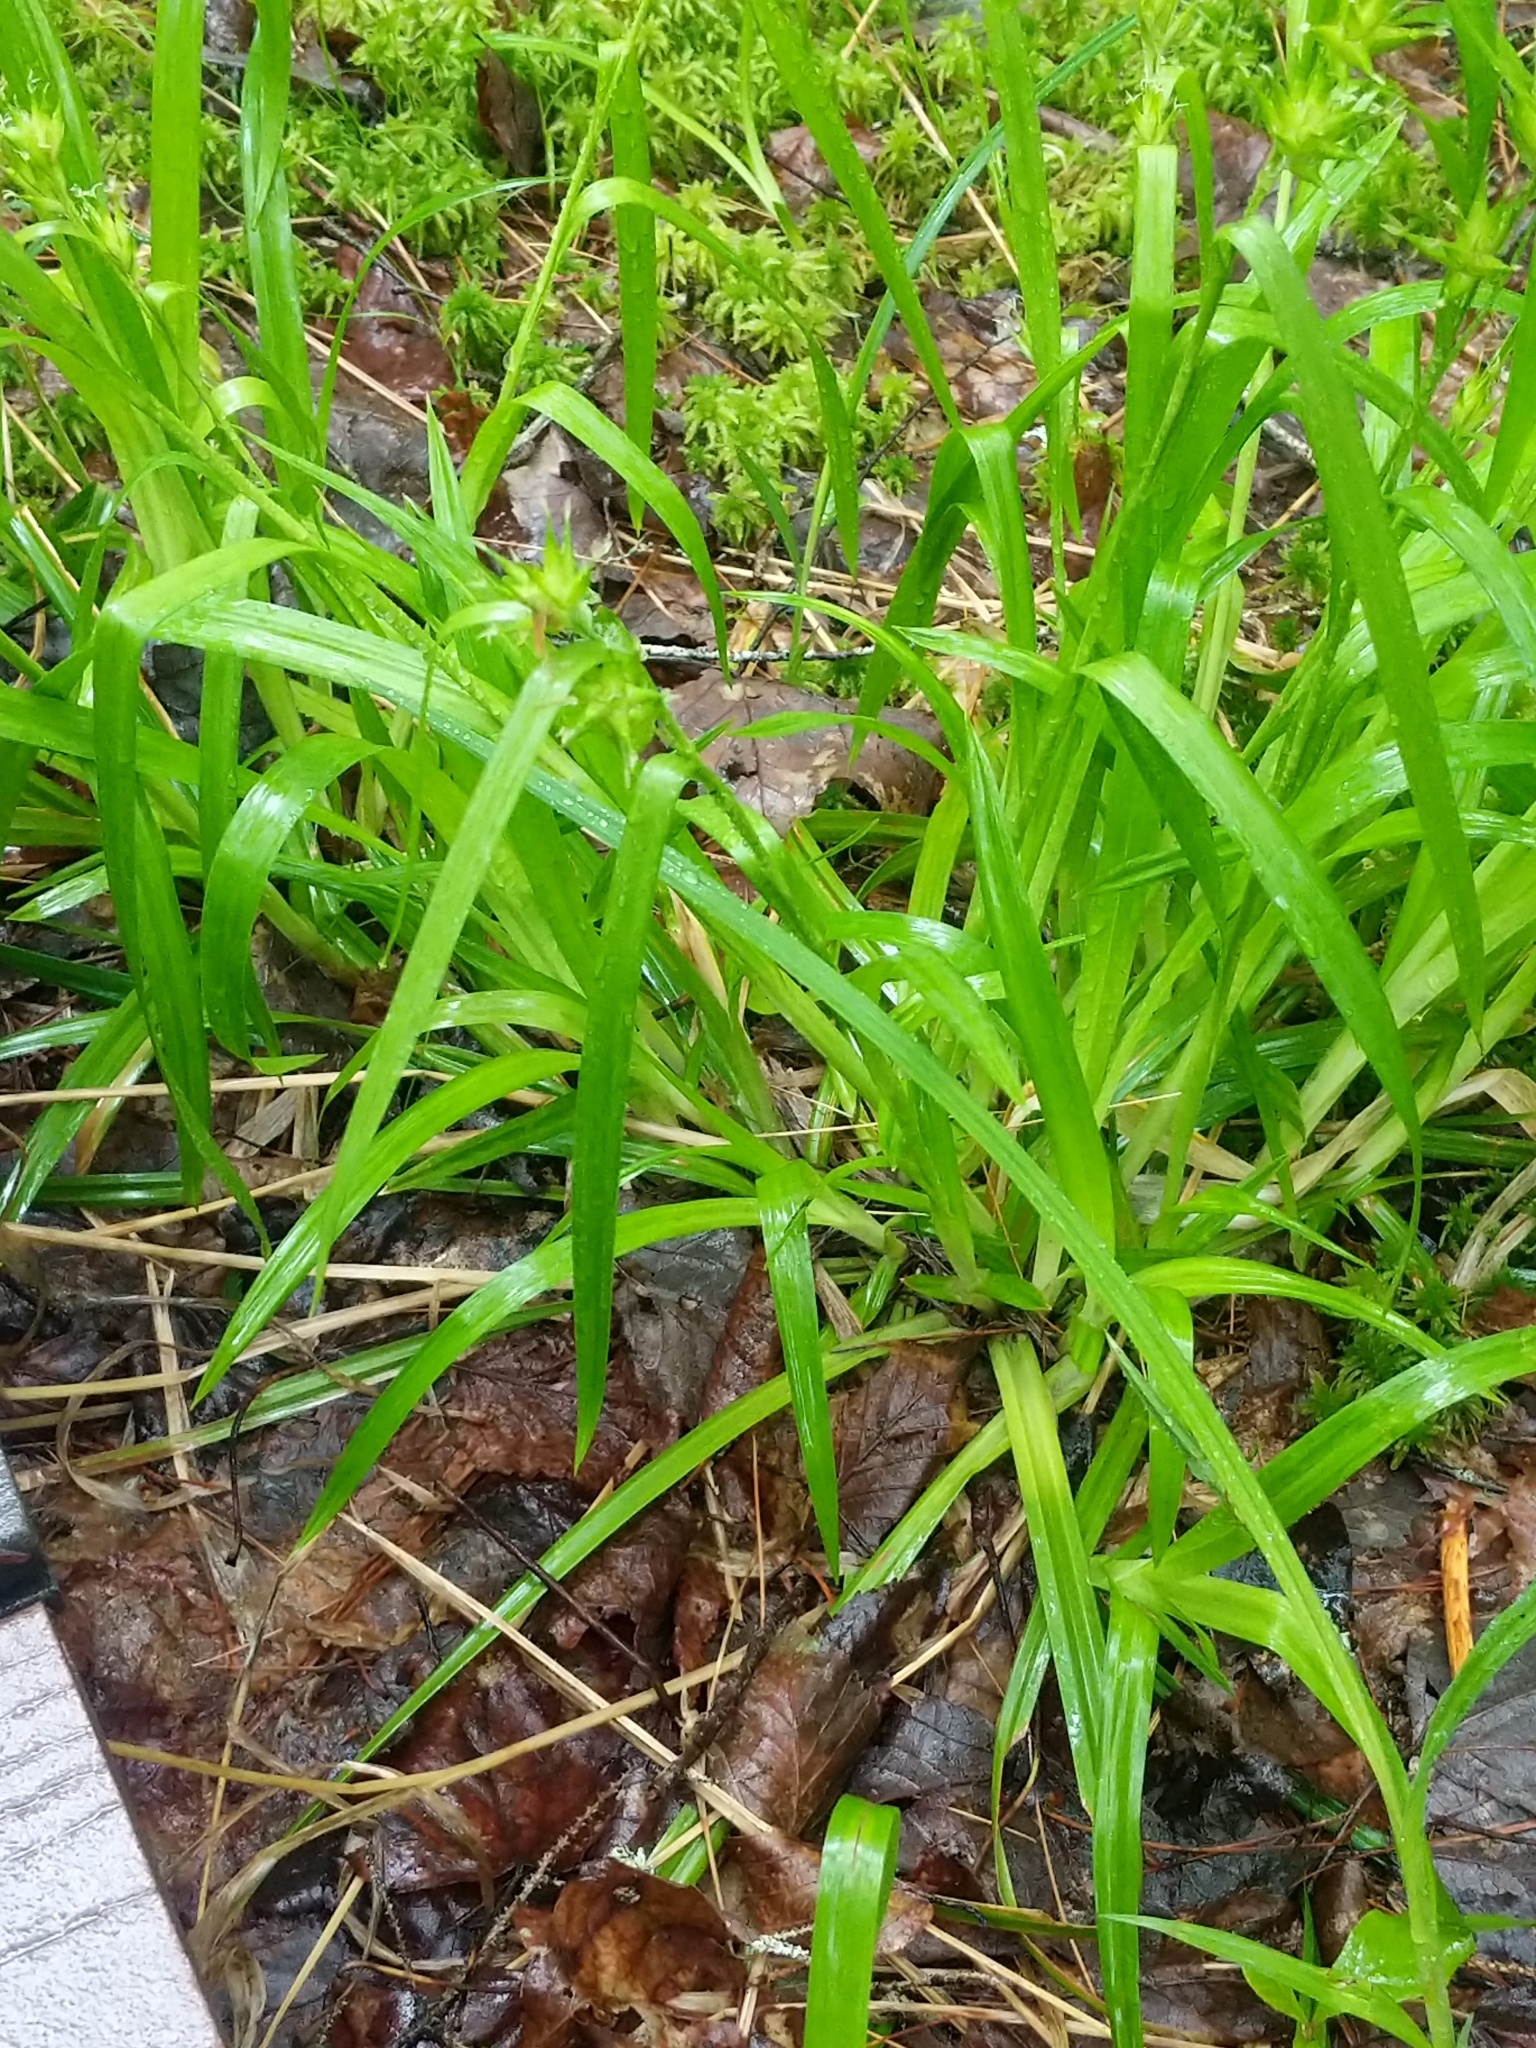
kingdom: Plantae
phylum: Tracheophyta
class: Liliopsida
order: Poales
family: Cyperaceae
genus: Carex
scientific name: Carex folliculata
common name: Northern long sedge
